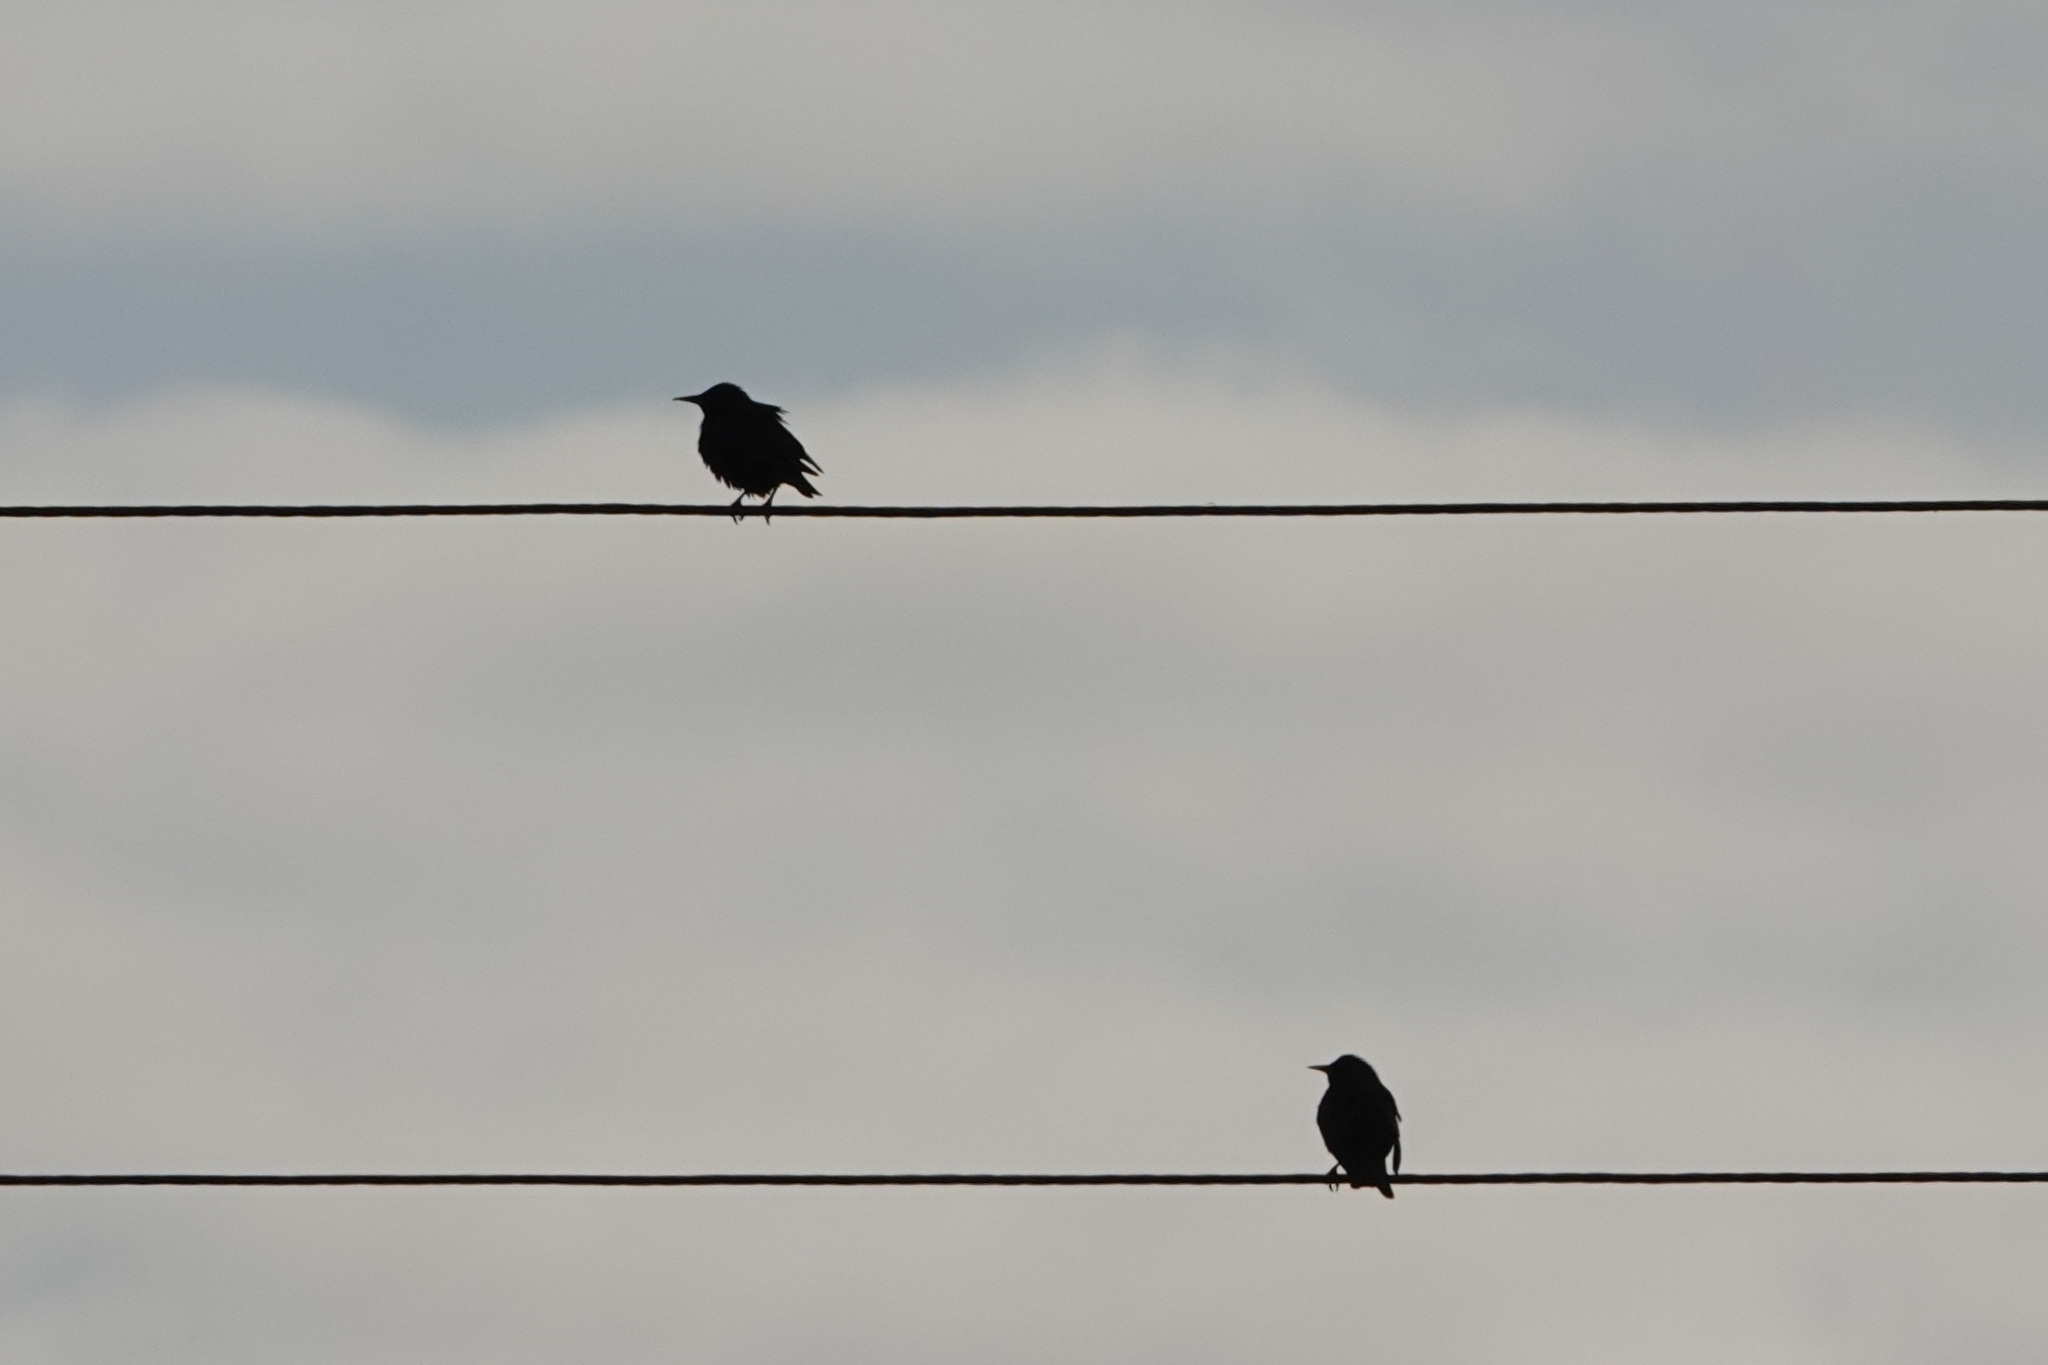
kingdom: Animalia
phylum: Chordata
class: Aves
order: Passeriformes
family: Sturnidae
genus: Sturnus
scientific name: Sturnus vulgaris
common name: Common starling
